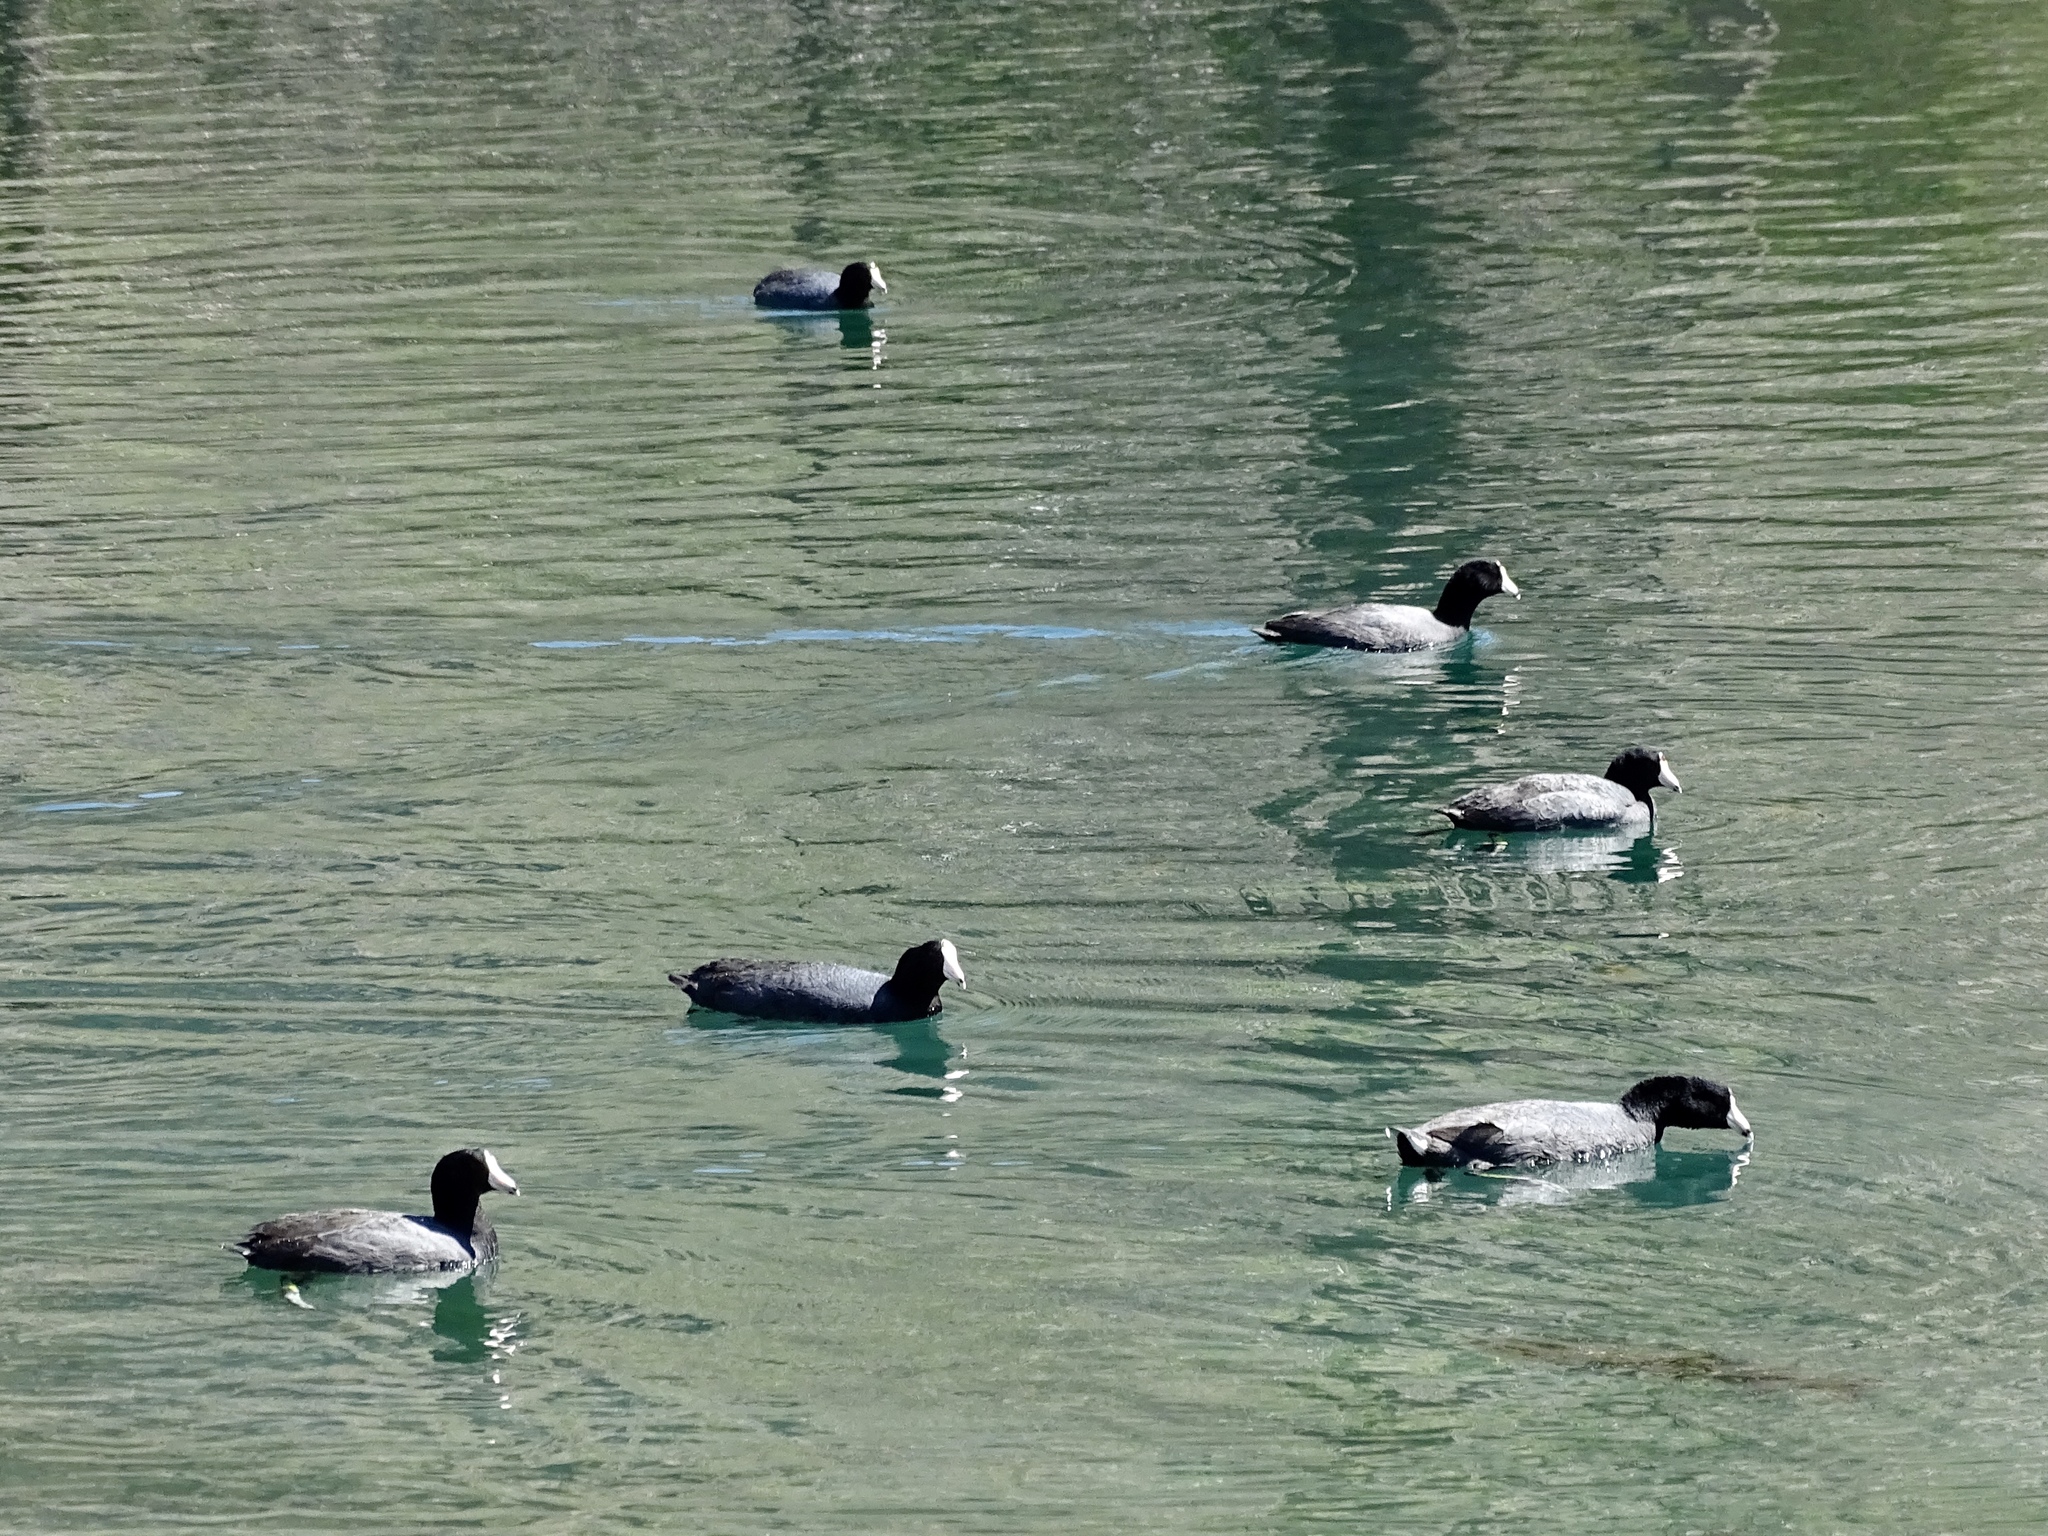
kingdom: Animalia
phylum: Chordata
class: Aves
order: Gruiformes
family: Rallidae
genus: Fulica
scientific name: Fulica americana
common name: American coot
